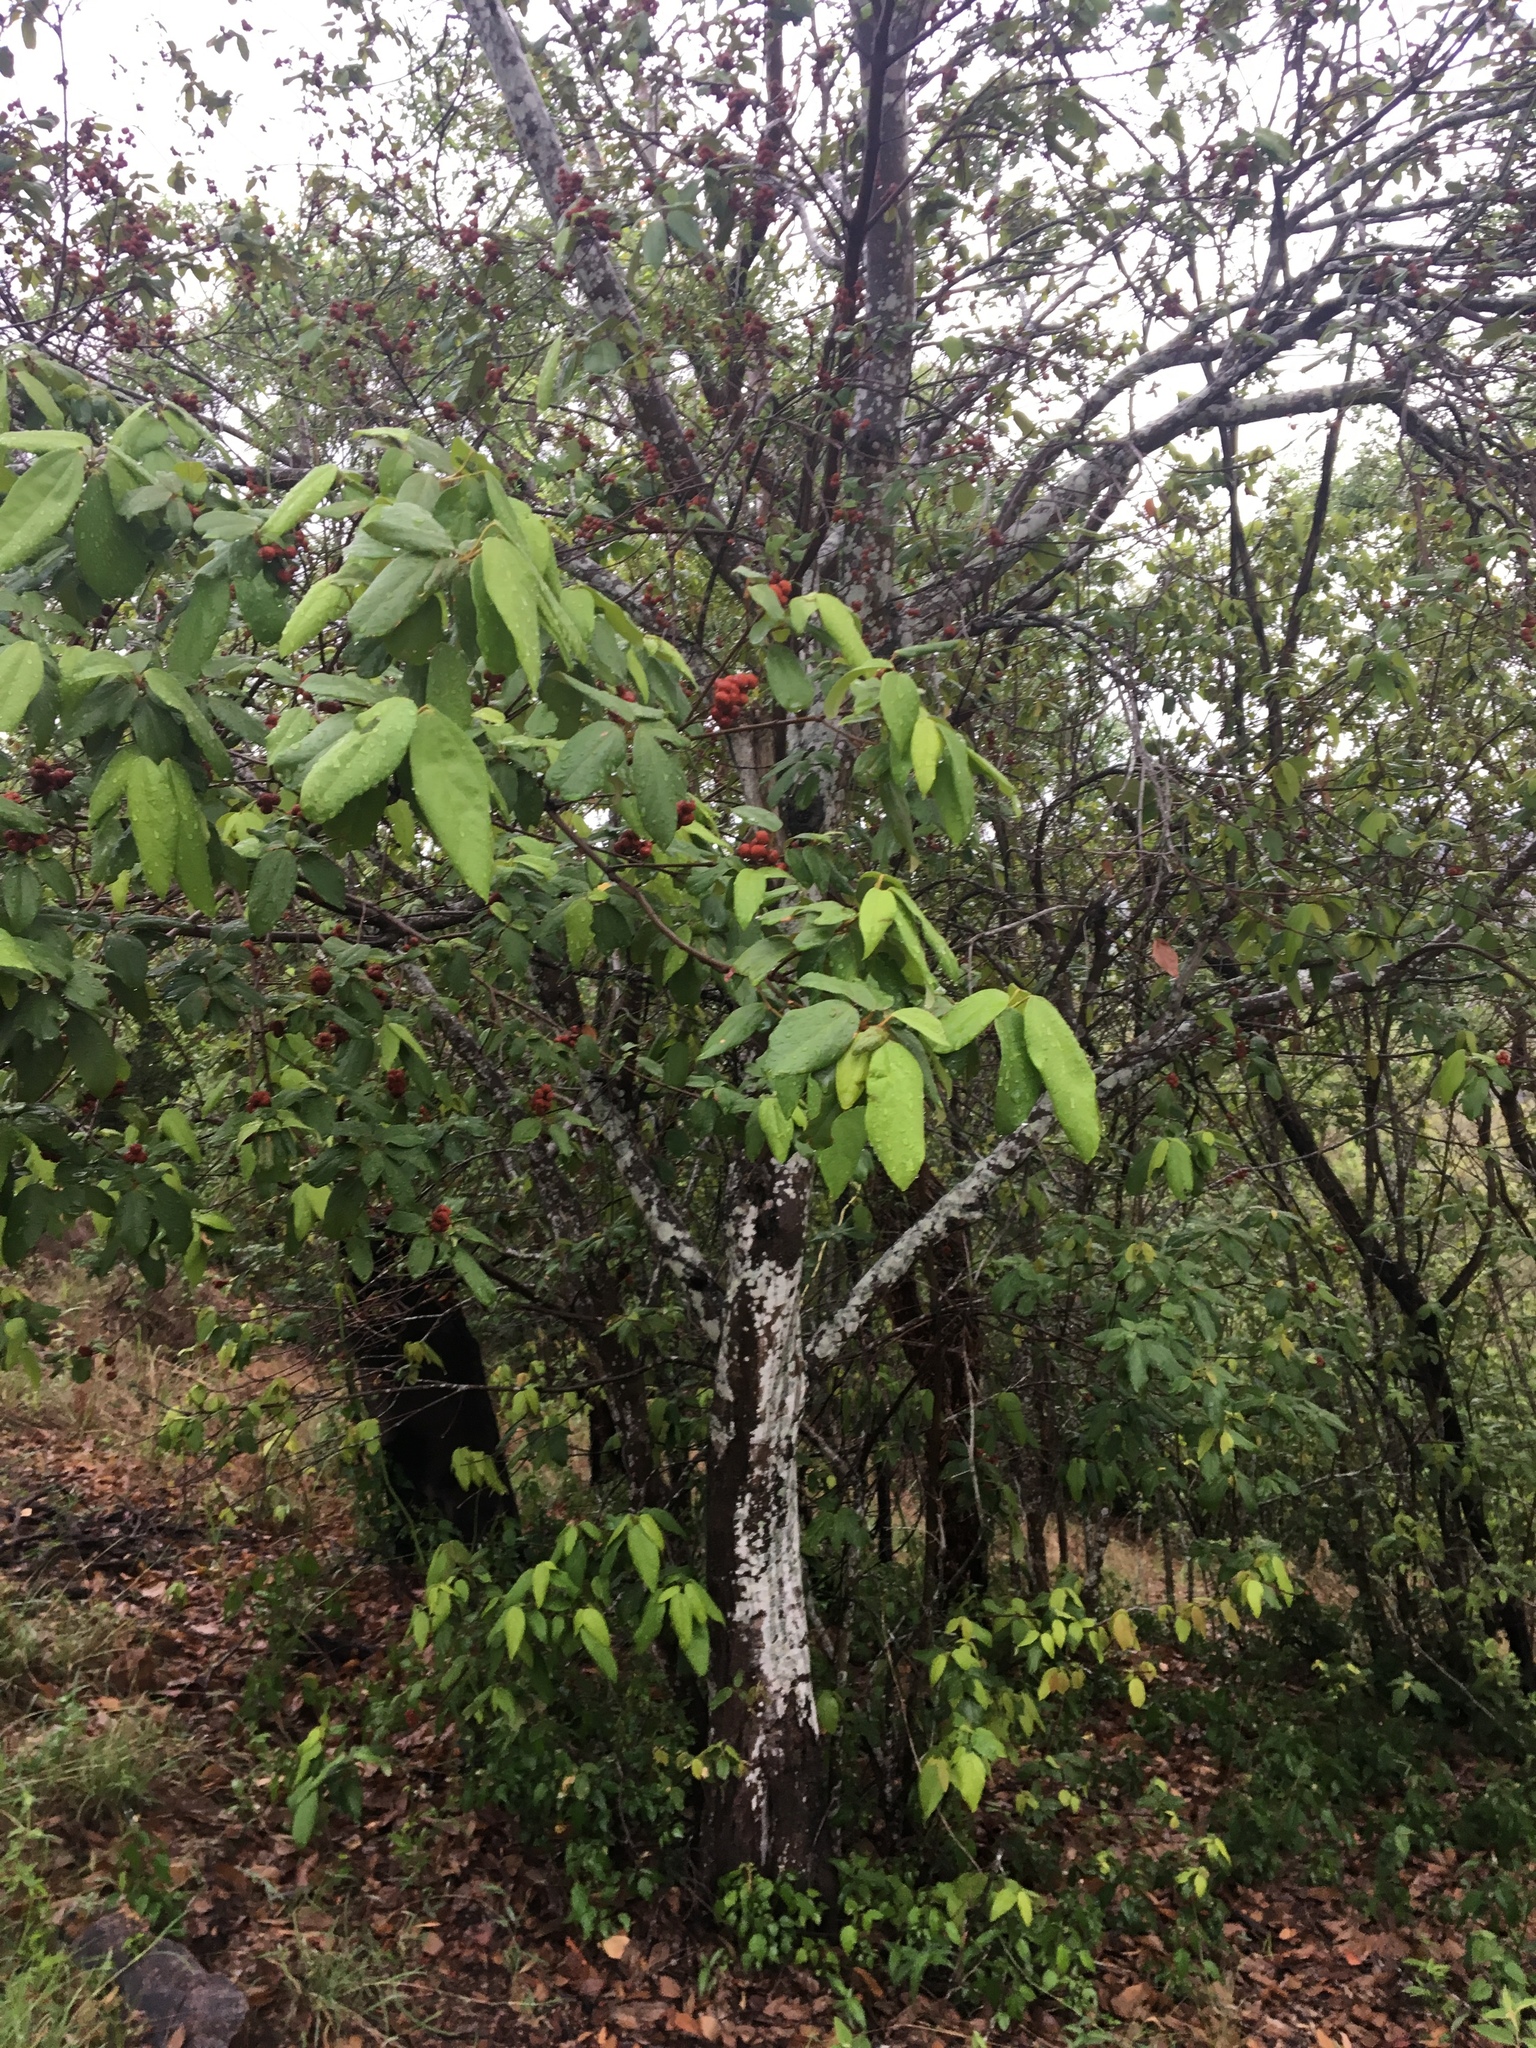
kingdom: Plantae
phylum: Tracheophyta
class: Magnoliopsida
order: Malpighiales
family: Euphorbiaceae
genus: Mallotus
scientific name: Mallotus philippensis
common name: Kamala tree
